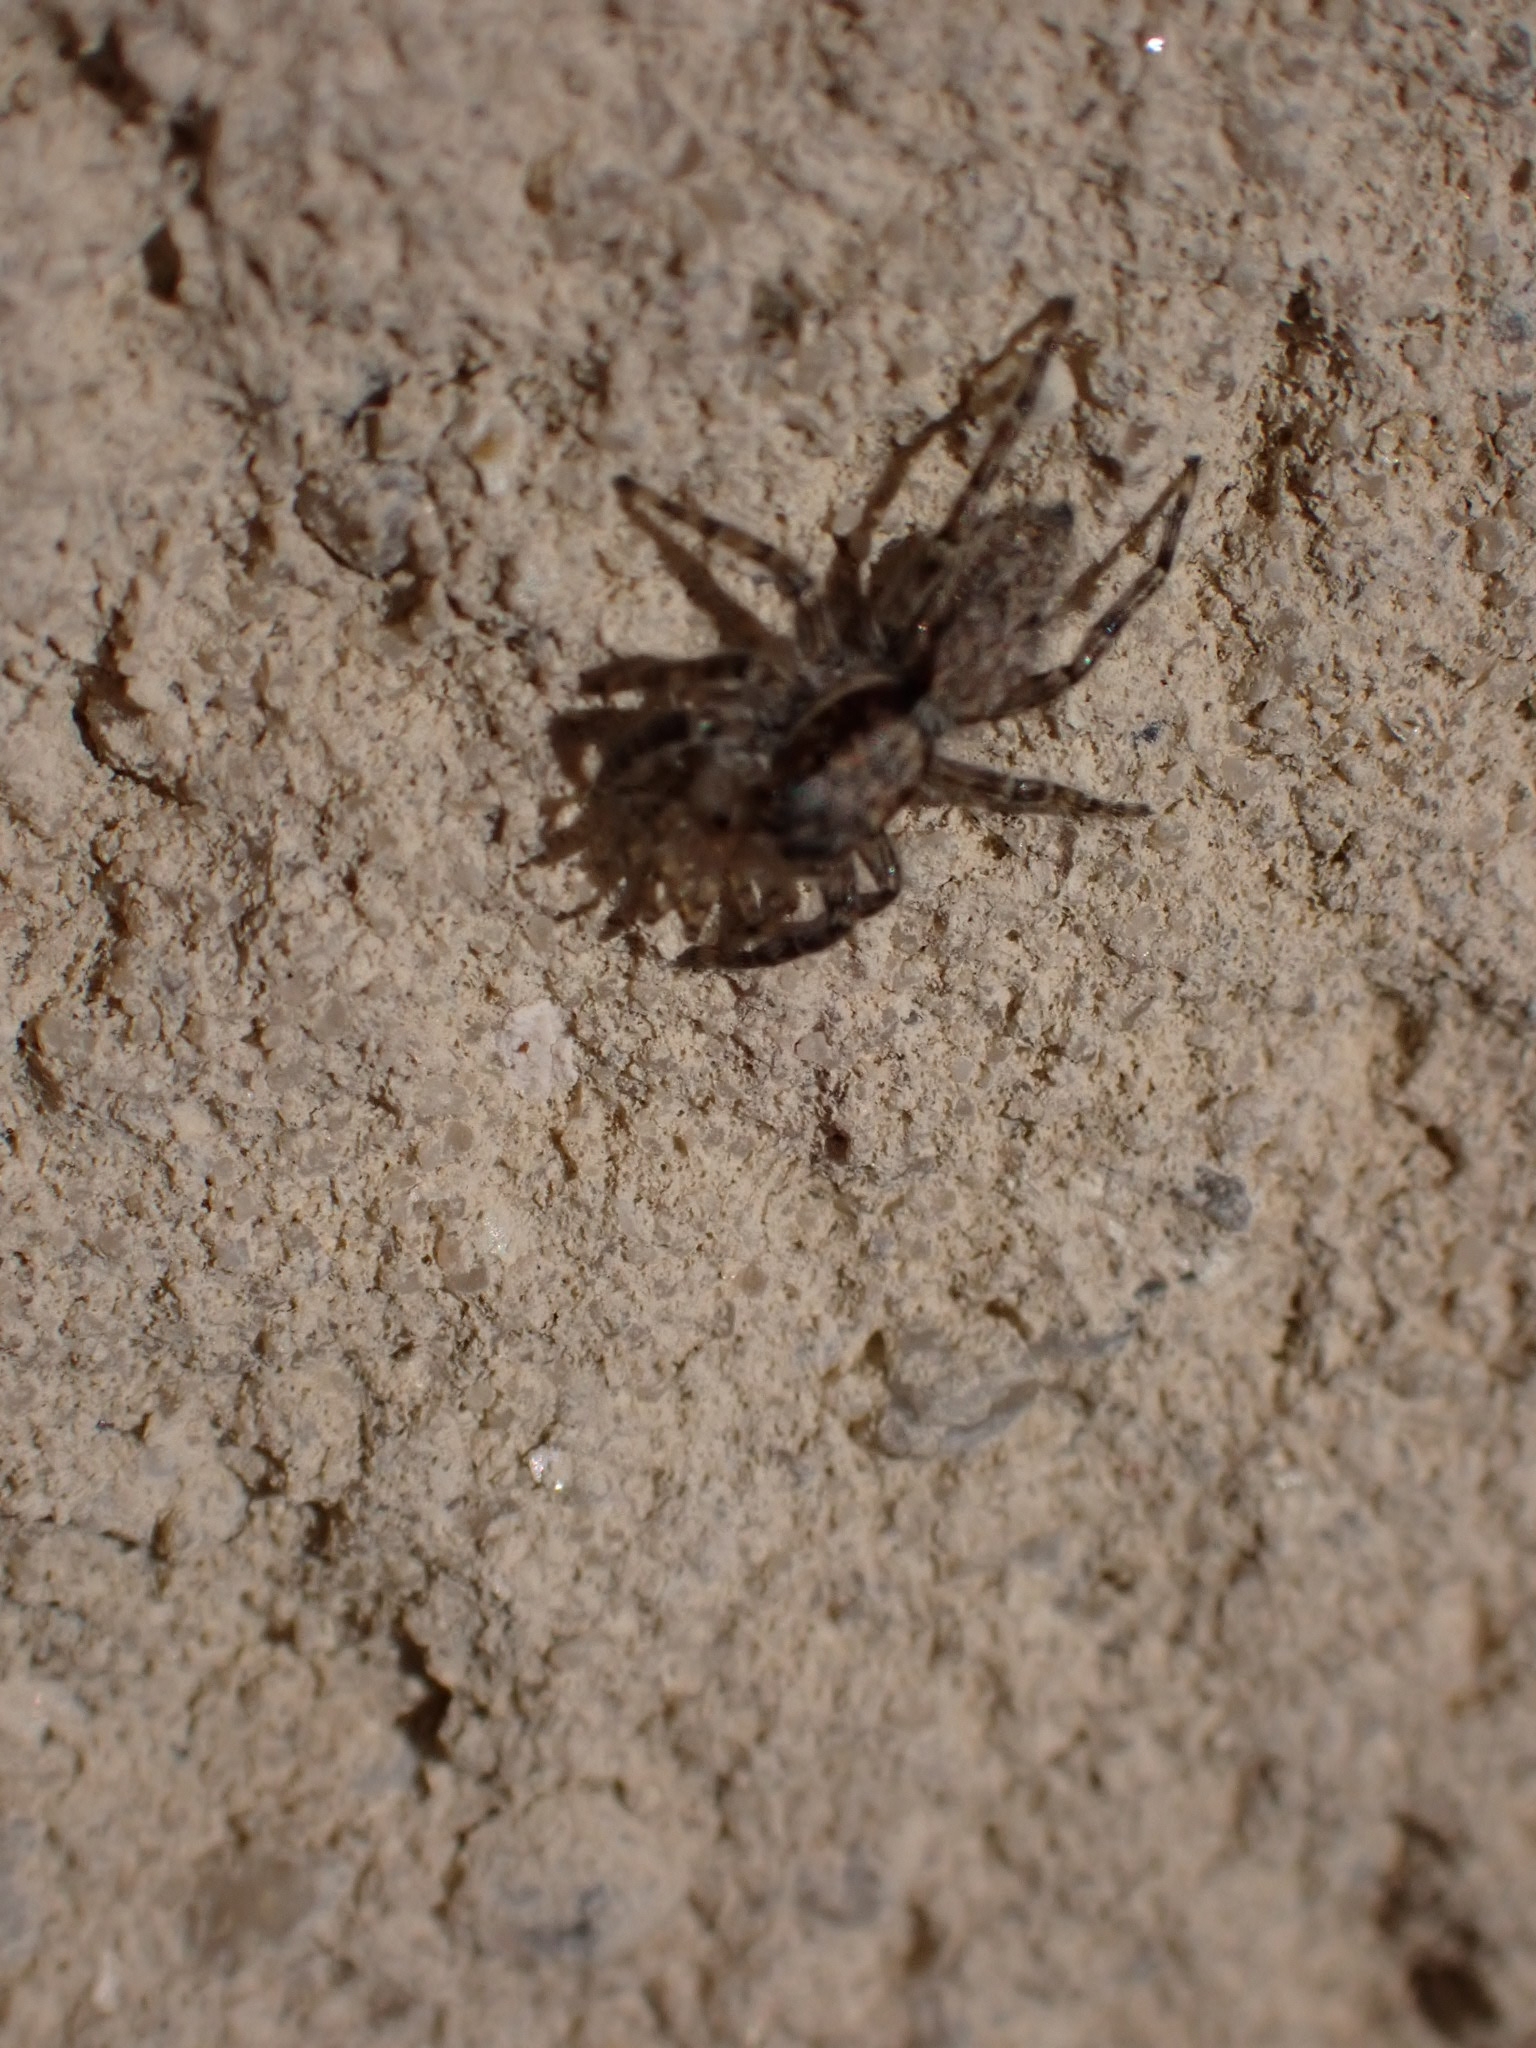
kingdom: Animalia
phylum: Arthropoda
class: Arachnida
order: Araneae
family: Salticidae
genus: Menemerus
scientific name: Menemerus taeniatus
